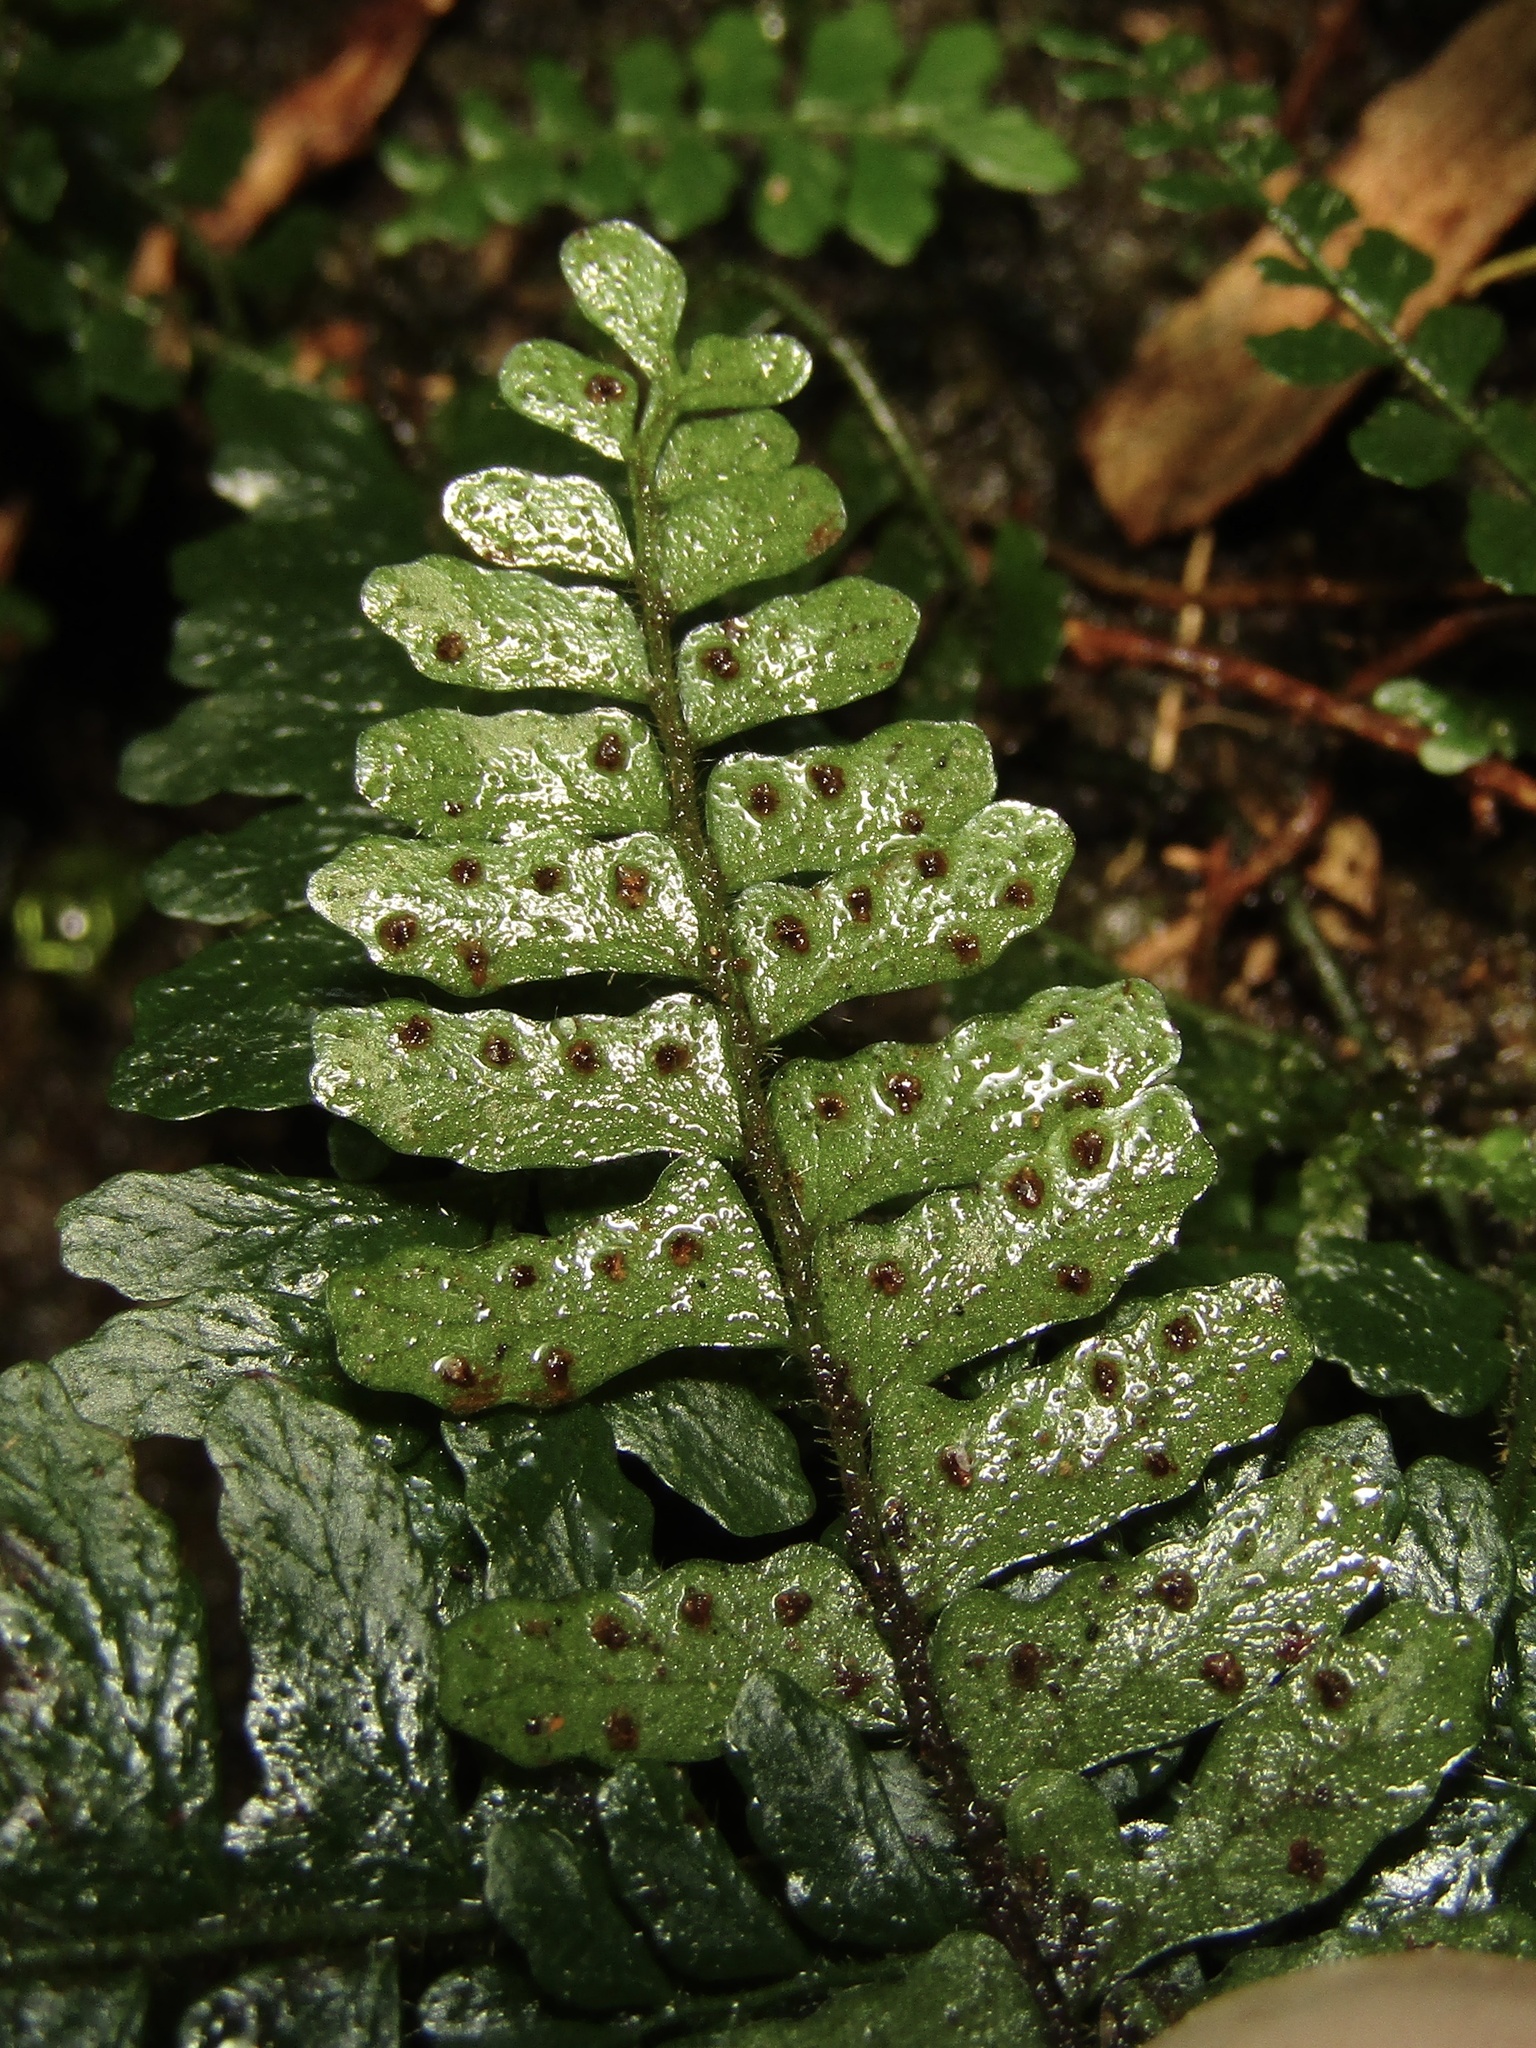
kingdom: Plantae
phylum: Tracheophyta
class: Polypodiopsida
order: Polypodiales
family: Tectariaceae
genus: Arthropteris
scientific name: Arthropteris beckleri
